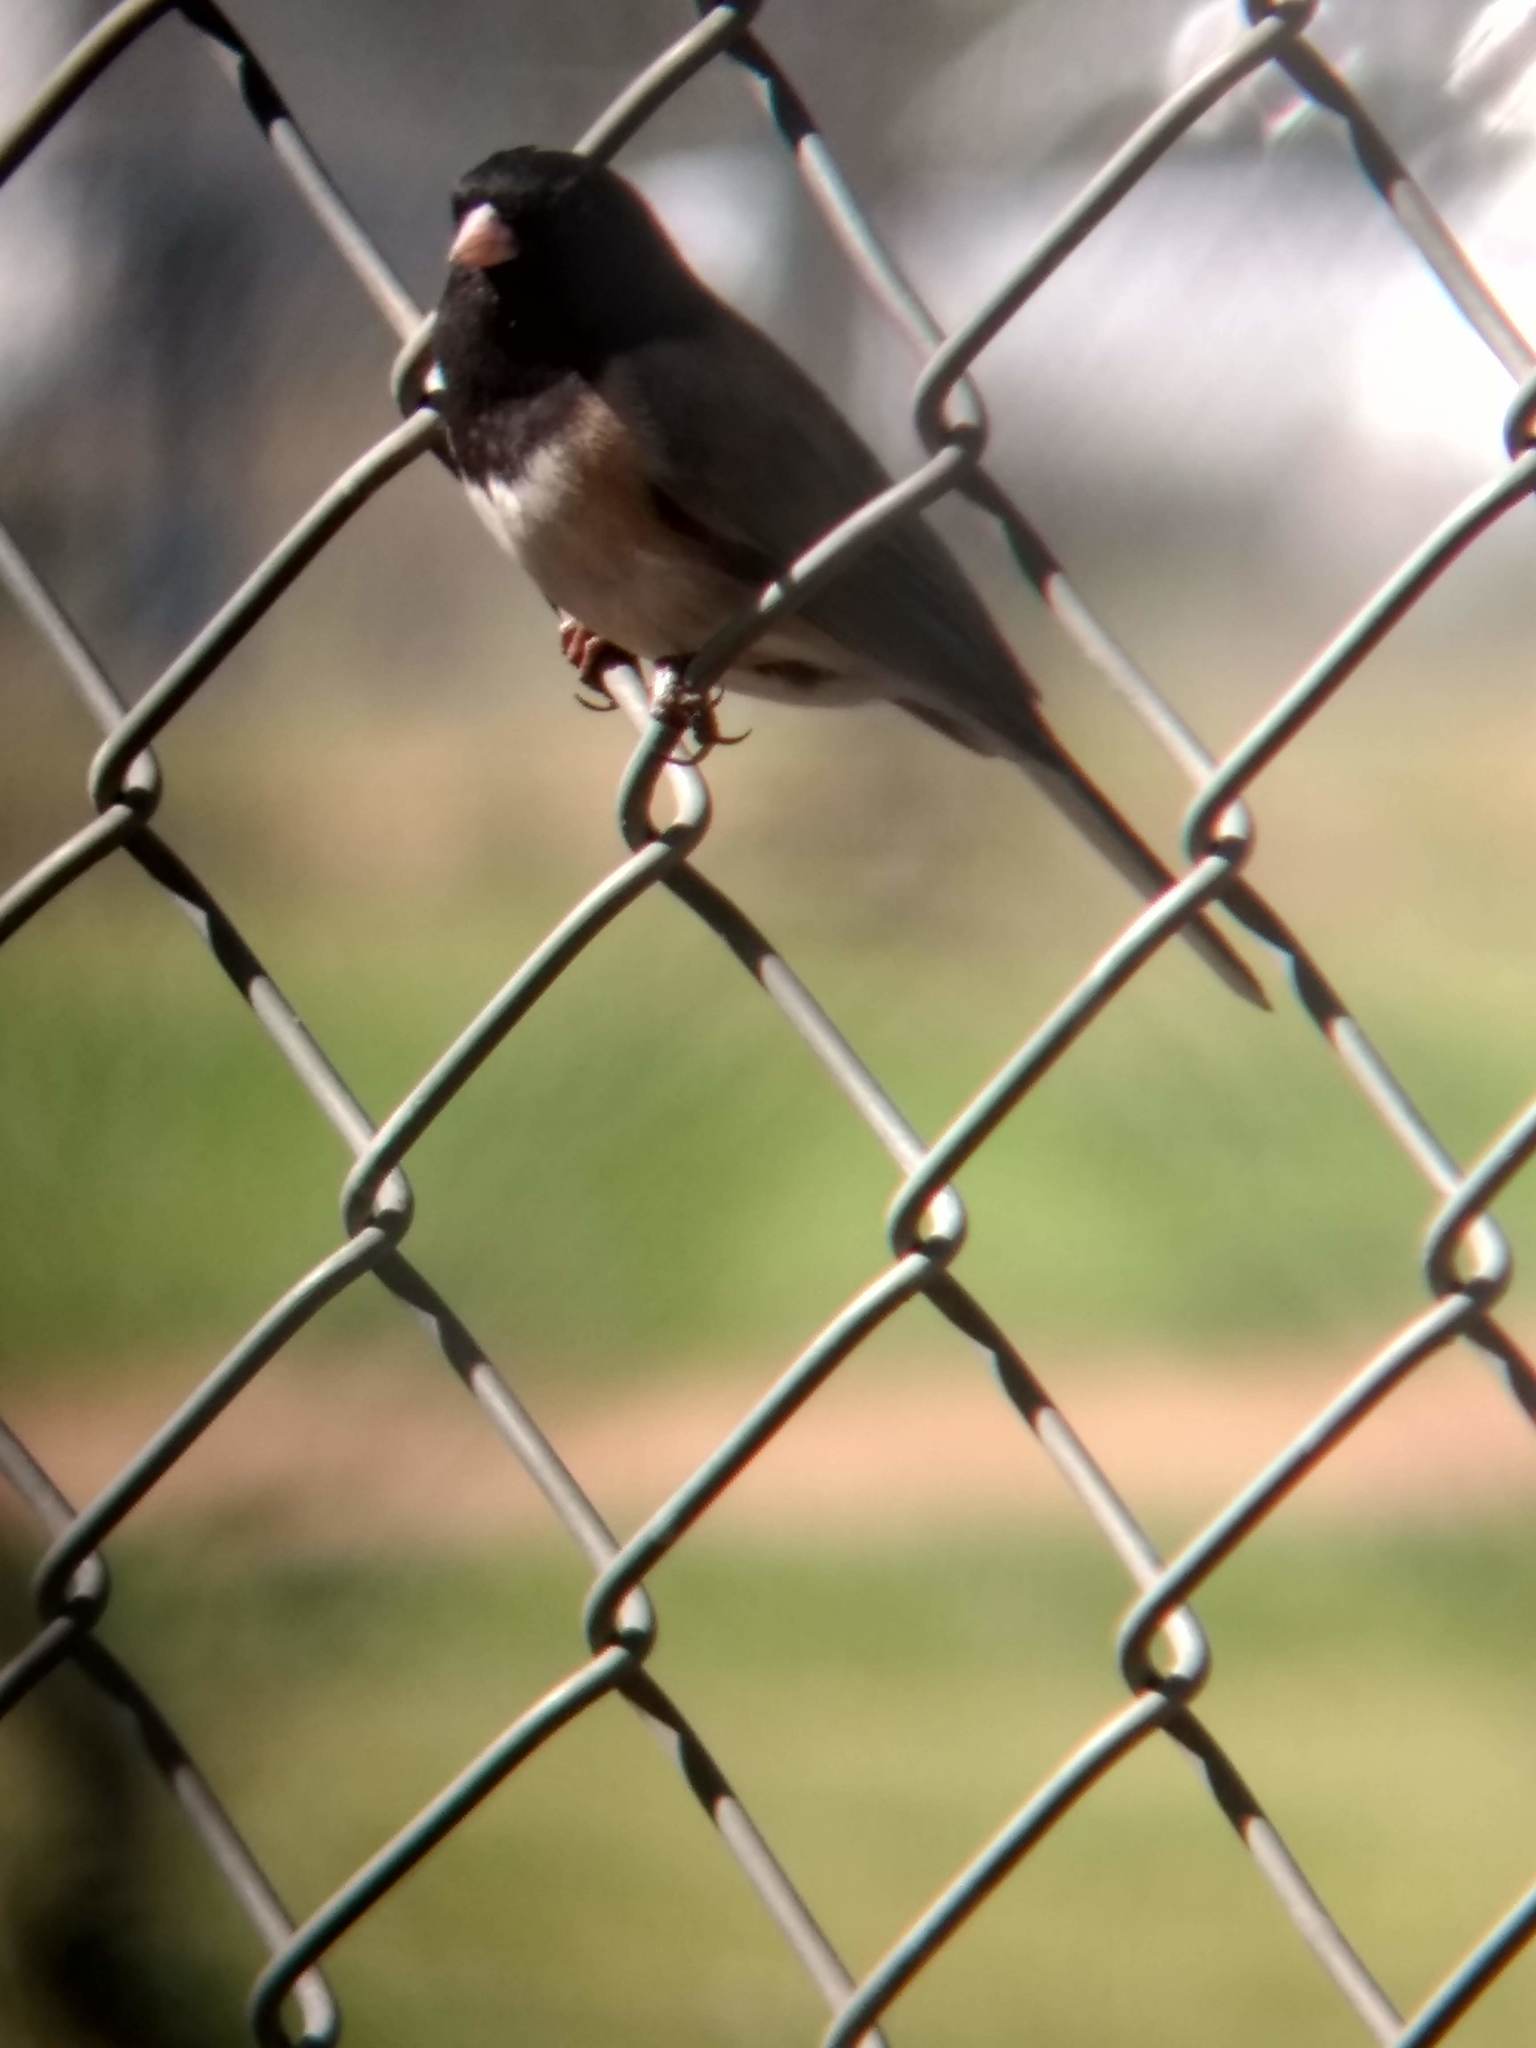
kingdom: Animalia
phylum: Chordata
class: Aves
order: Passeriformes
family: Passerellidae
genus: Junco
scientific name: Junco hyemalis
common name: Dark-eyed junco
